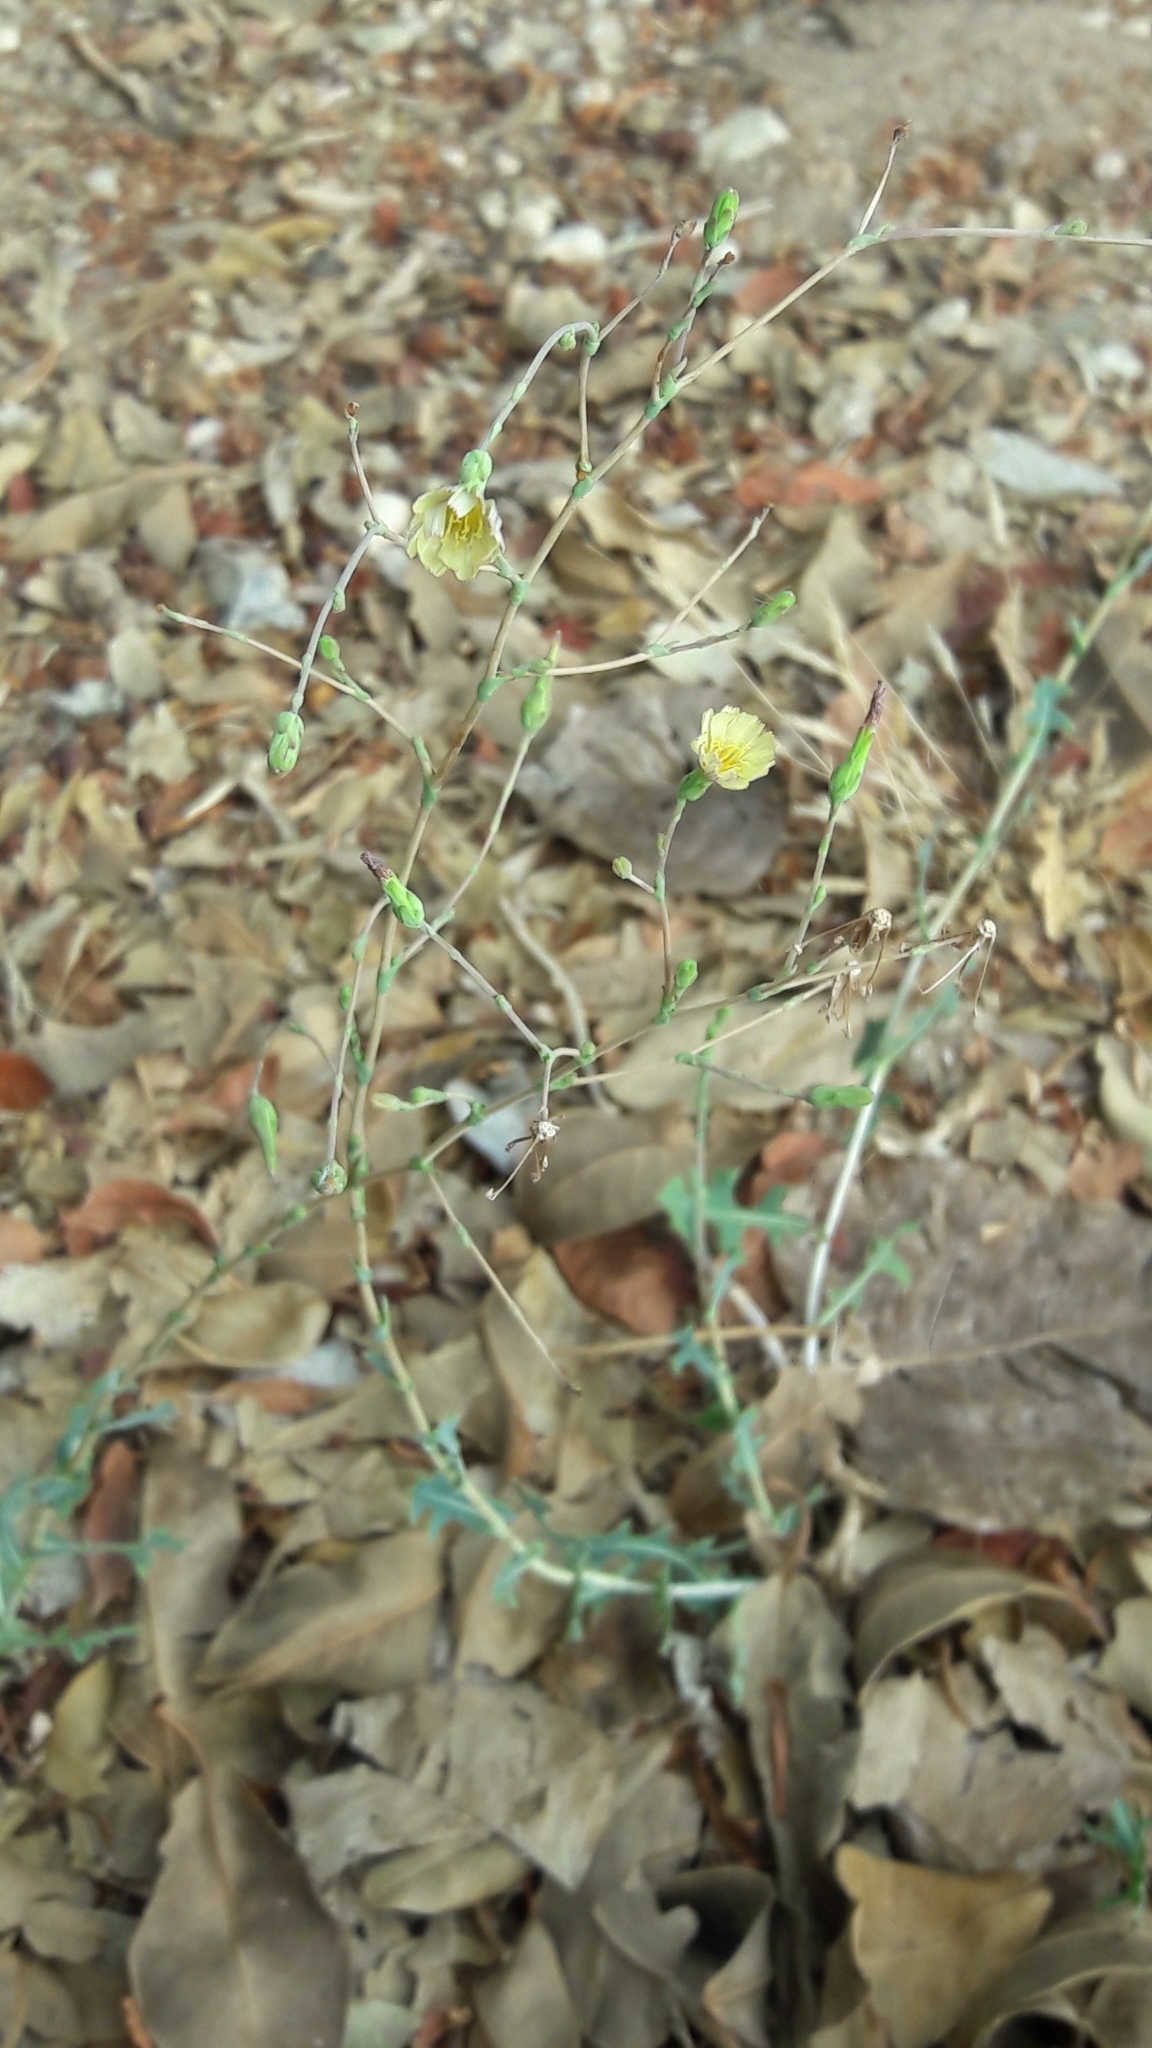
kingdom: Plantae
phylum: Tracheophyta
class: Magnoliopsida
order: Asterales
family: Asteraceae
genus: Lactuca
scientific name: Lactuca serriola
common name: Prickly lettuce
